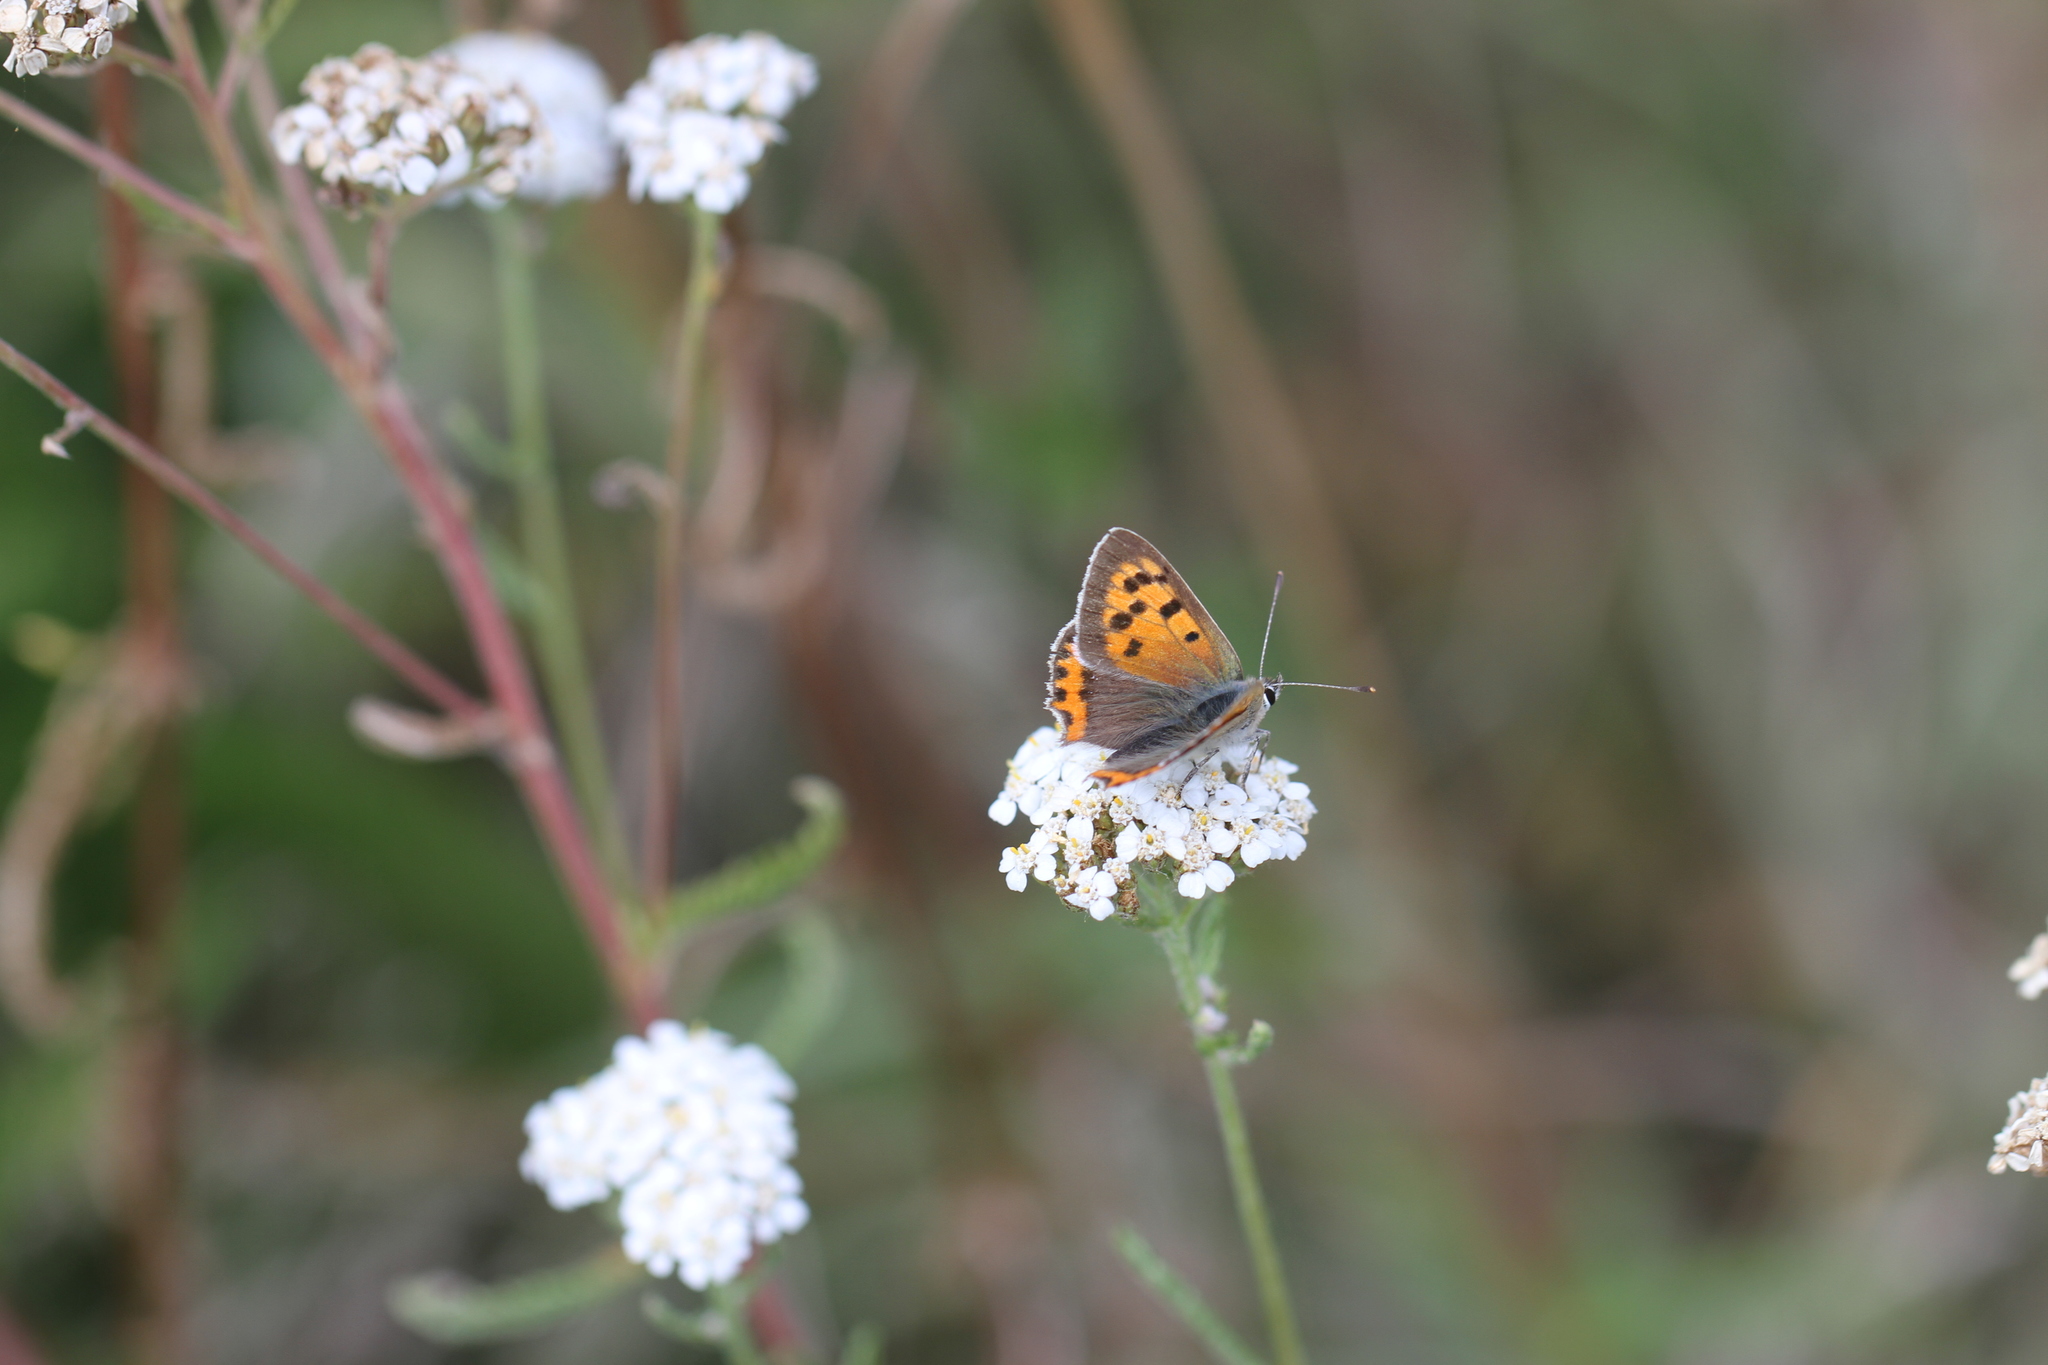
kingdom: Animalia
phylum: Arthropoda
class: Insecta
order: Lepidoptera
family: Lycaenidae
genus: Lycaena
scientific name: Lycaena phlaeas
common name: Small copper
